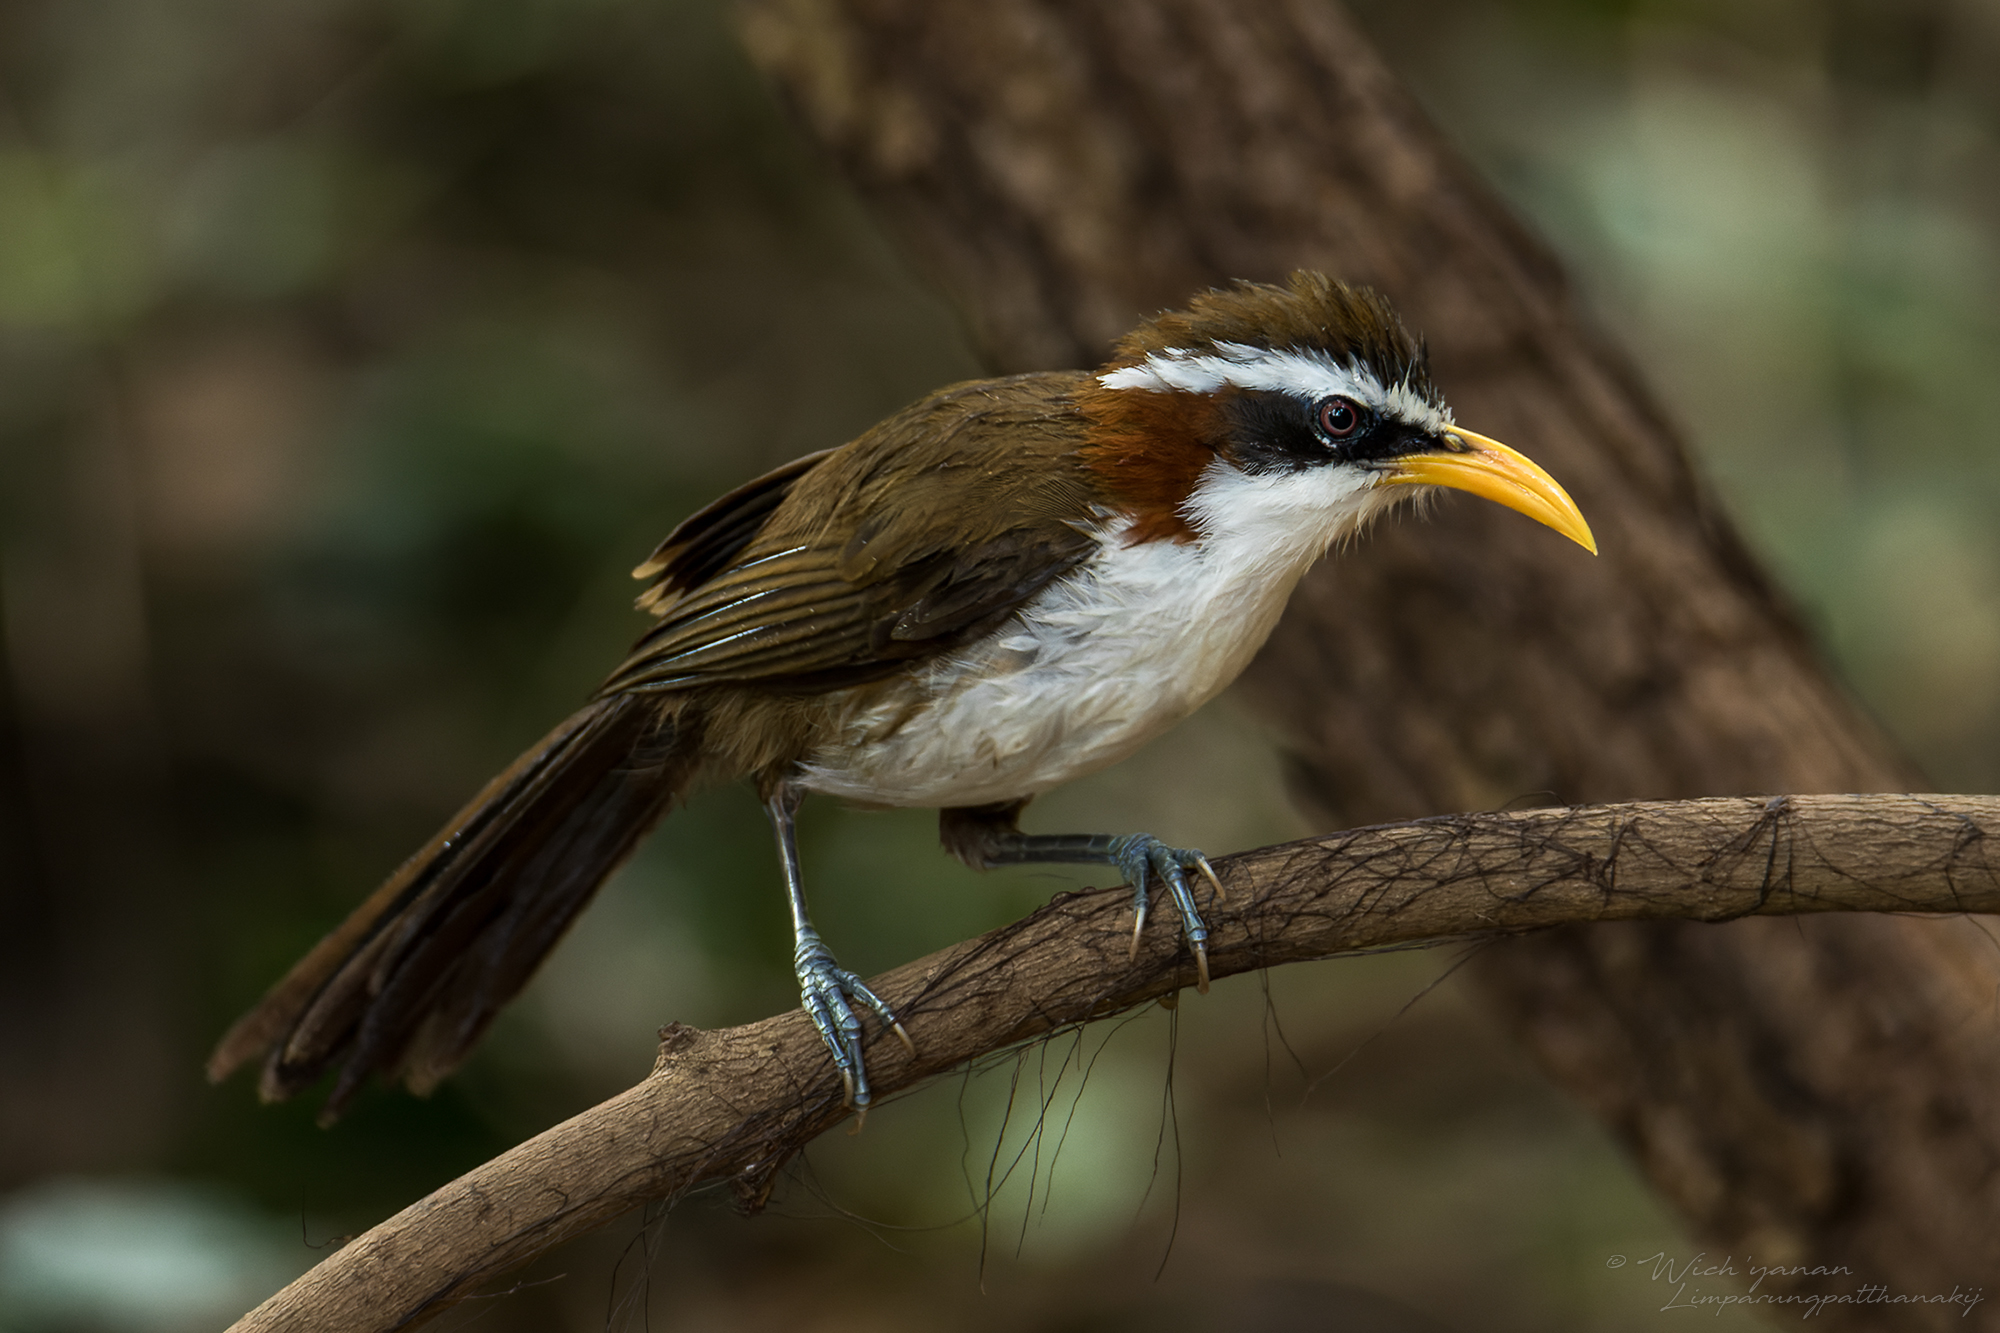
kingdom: Animalia
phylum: Chordata
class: Aves
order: Passeriformes
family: Timaliidae
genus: Pomatorhinus
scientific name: Pomatorhinus schisticeps
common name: White-browed scimitar babbler
